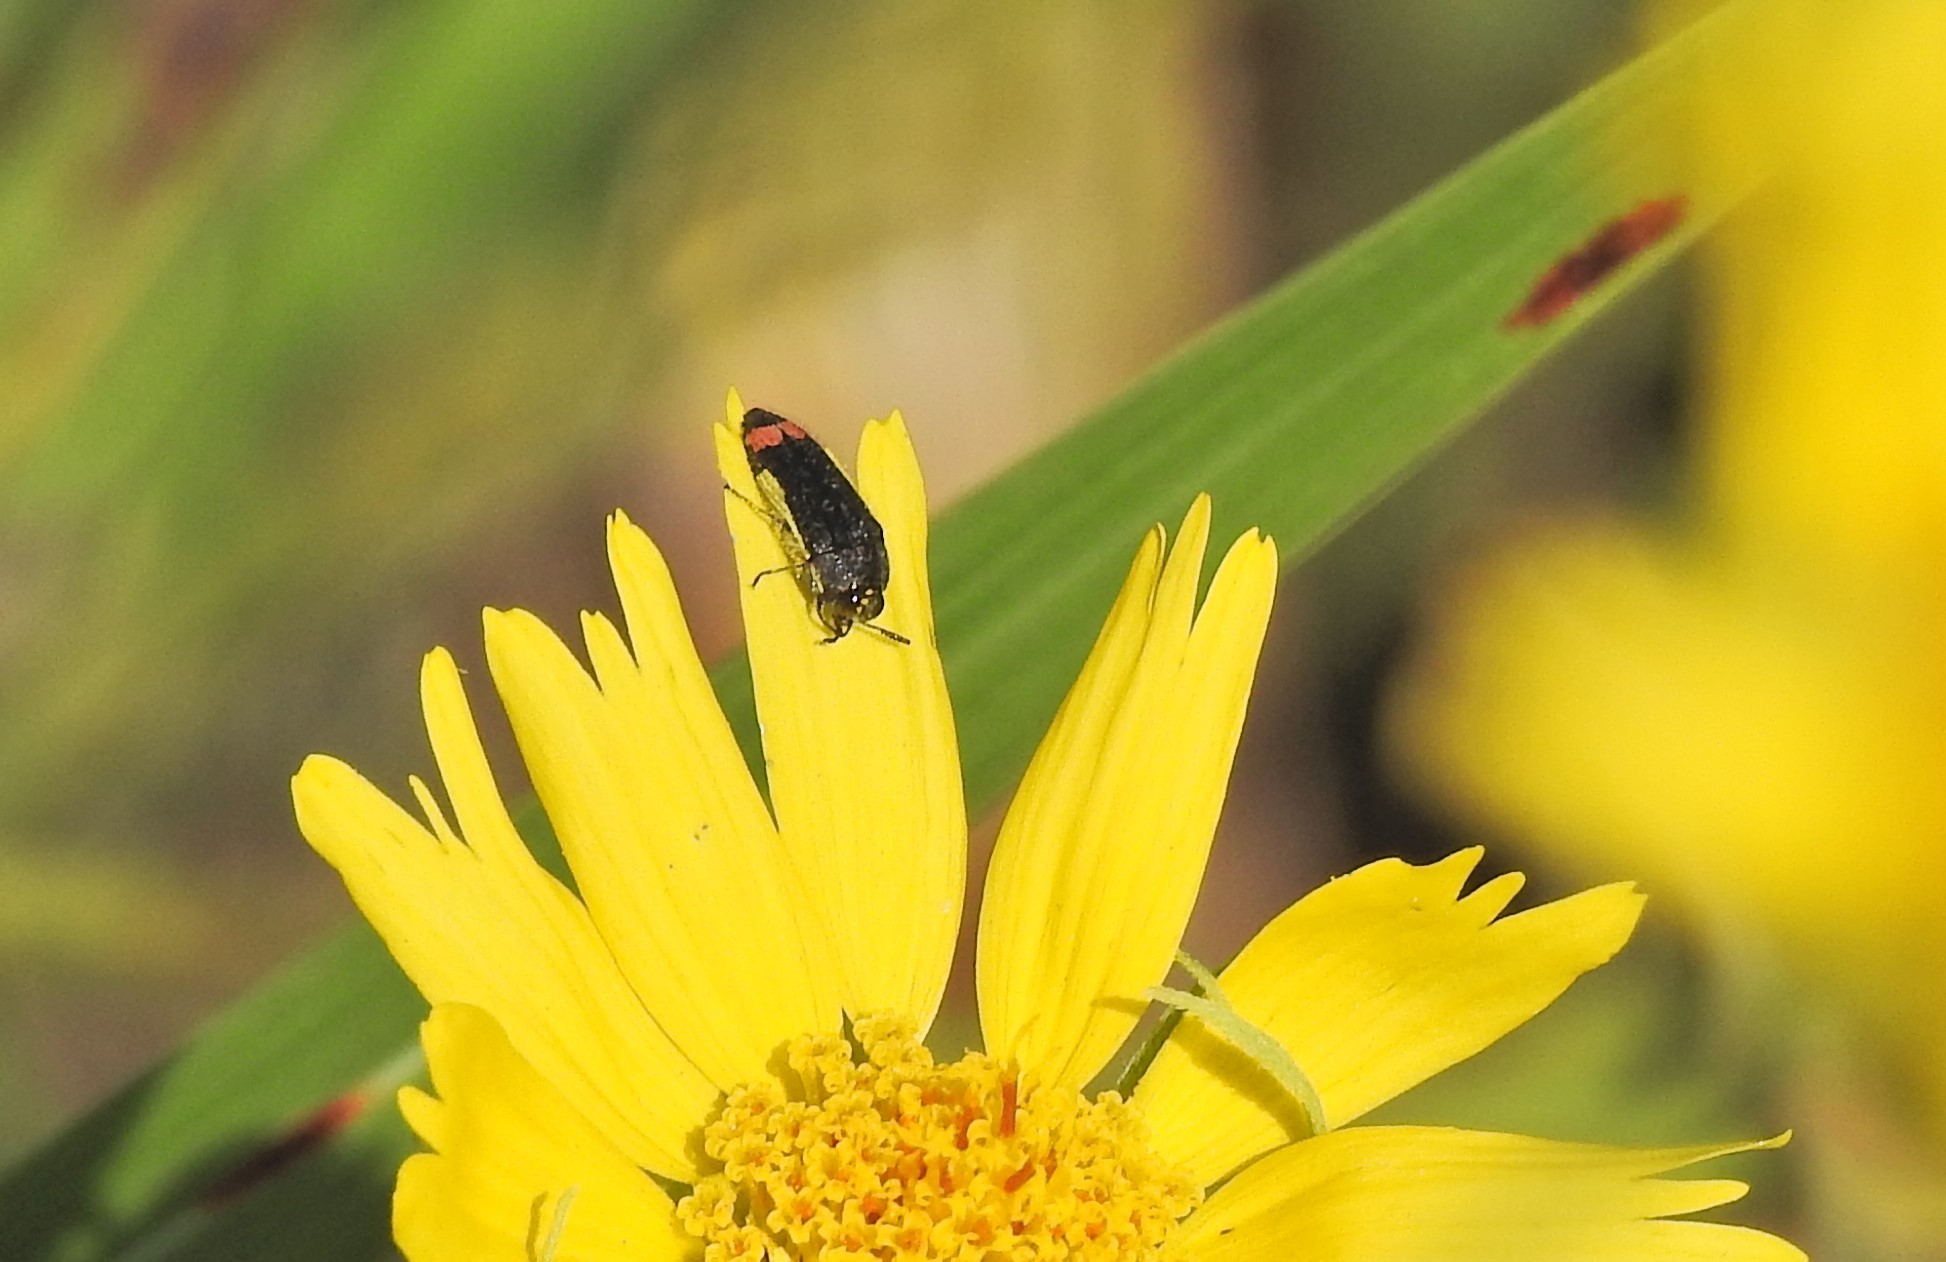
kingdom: Animalia
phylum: Arthropoda
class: Insecta
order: Coleoptera
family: Buprestidae
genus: Acmaeodera
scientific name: Acmaeodera flavomarginata
